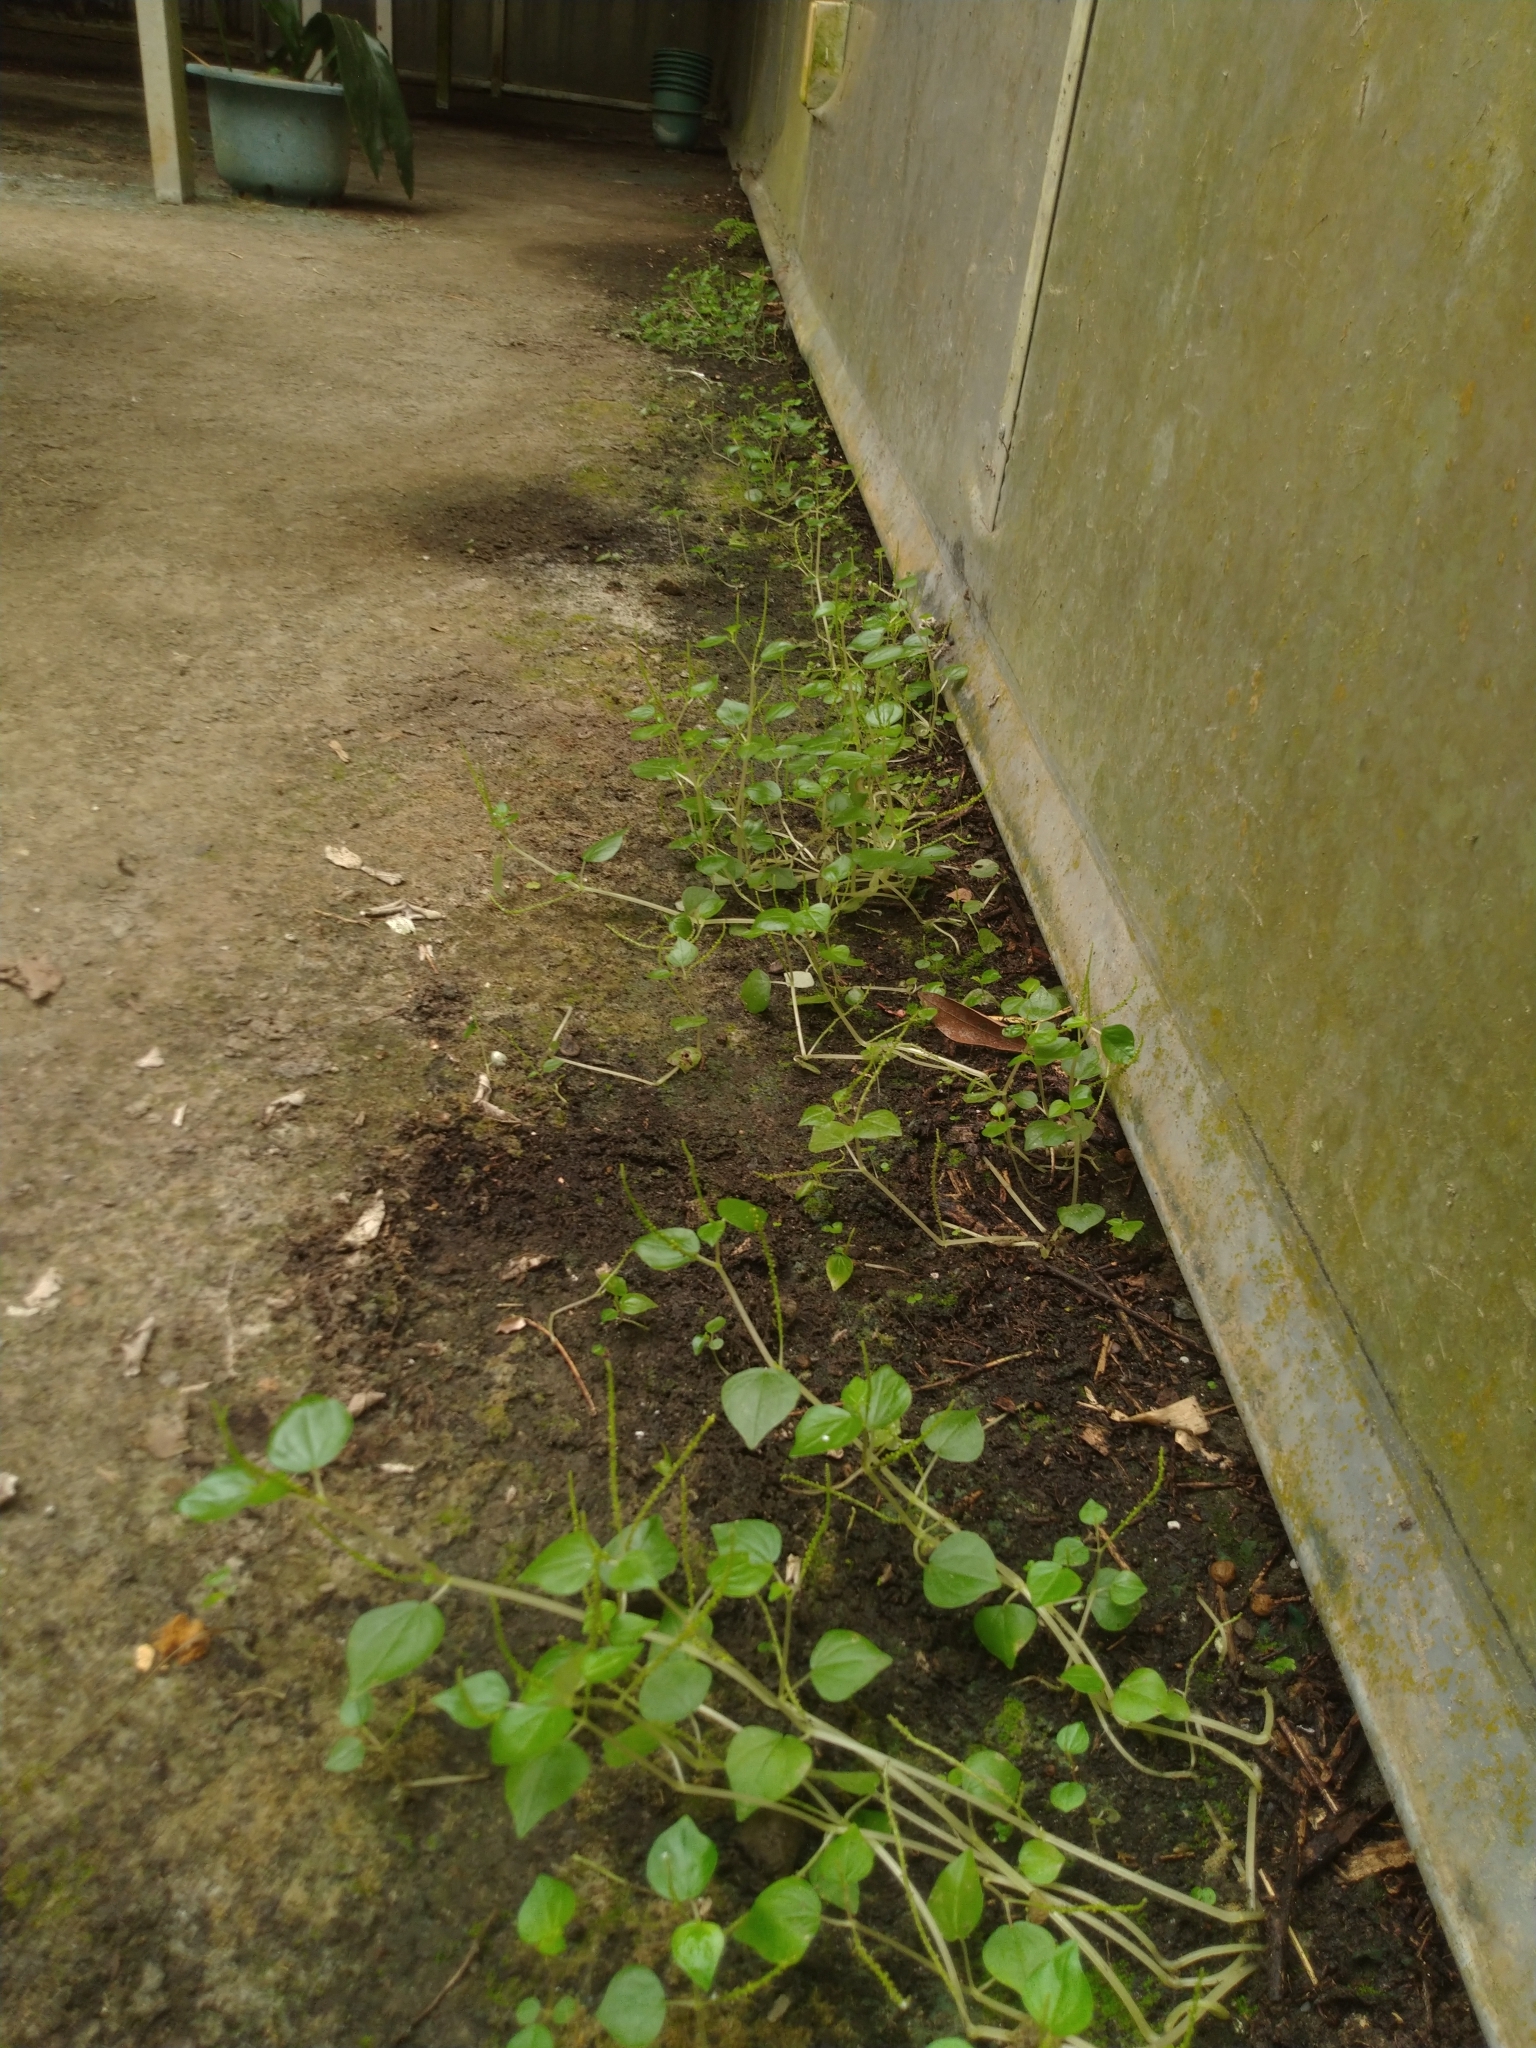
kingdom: Plantae
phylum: Tracheophyta
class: Magnoliopsida
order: Piperales
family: Piperaceae
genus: Peperomia
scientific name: Peperomia pellucida
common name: Man to man
